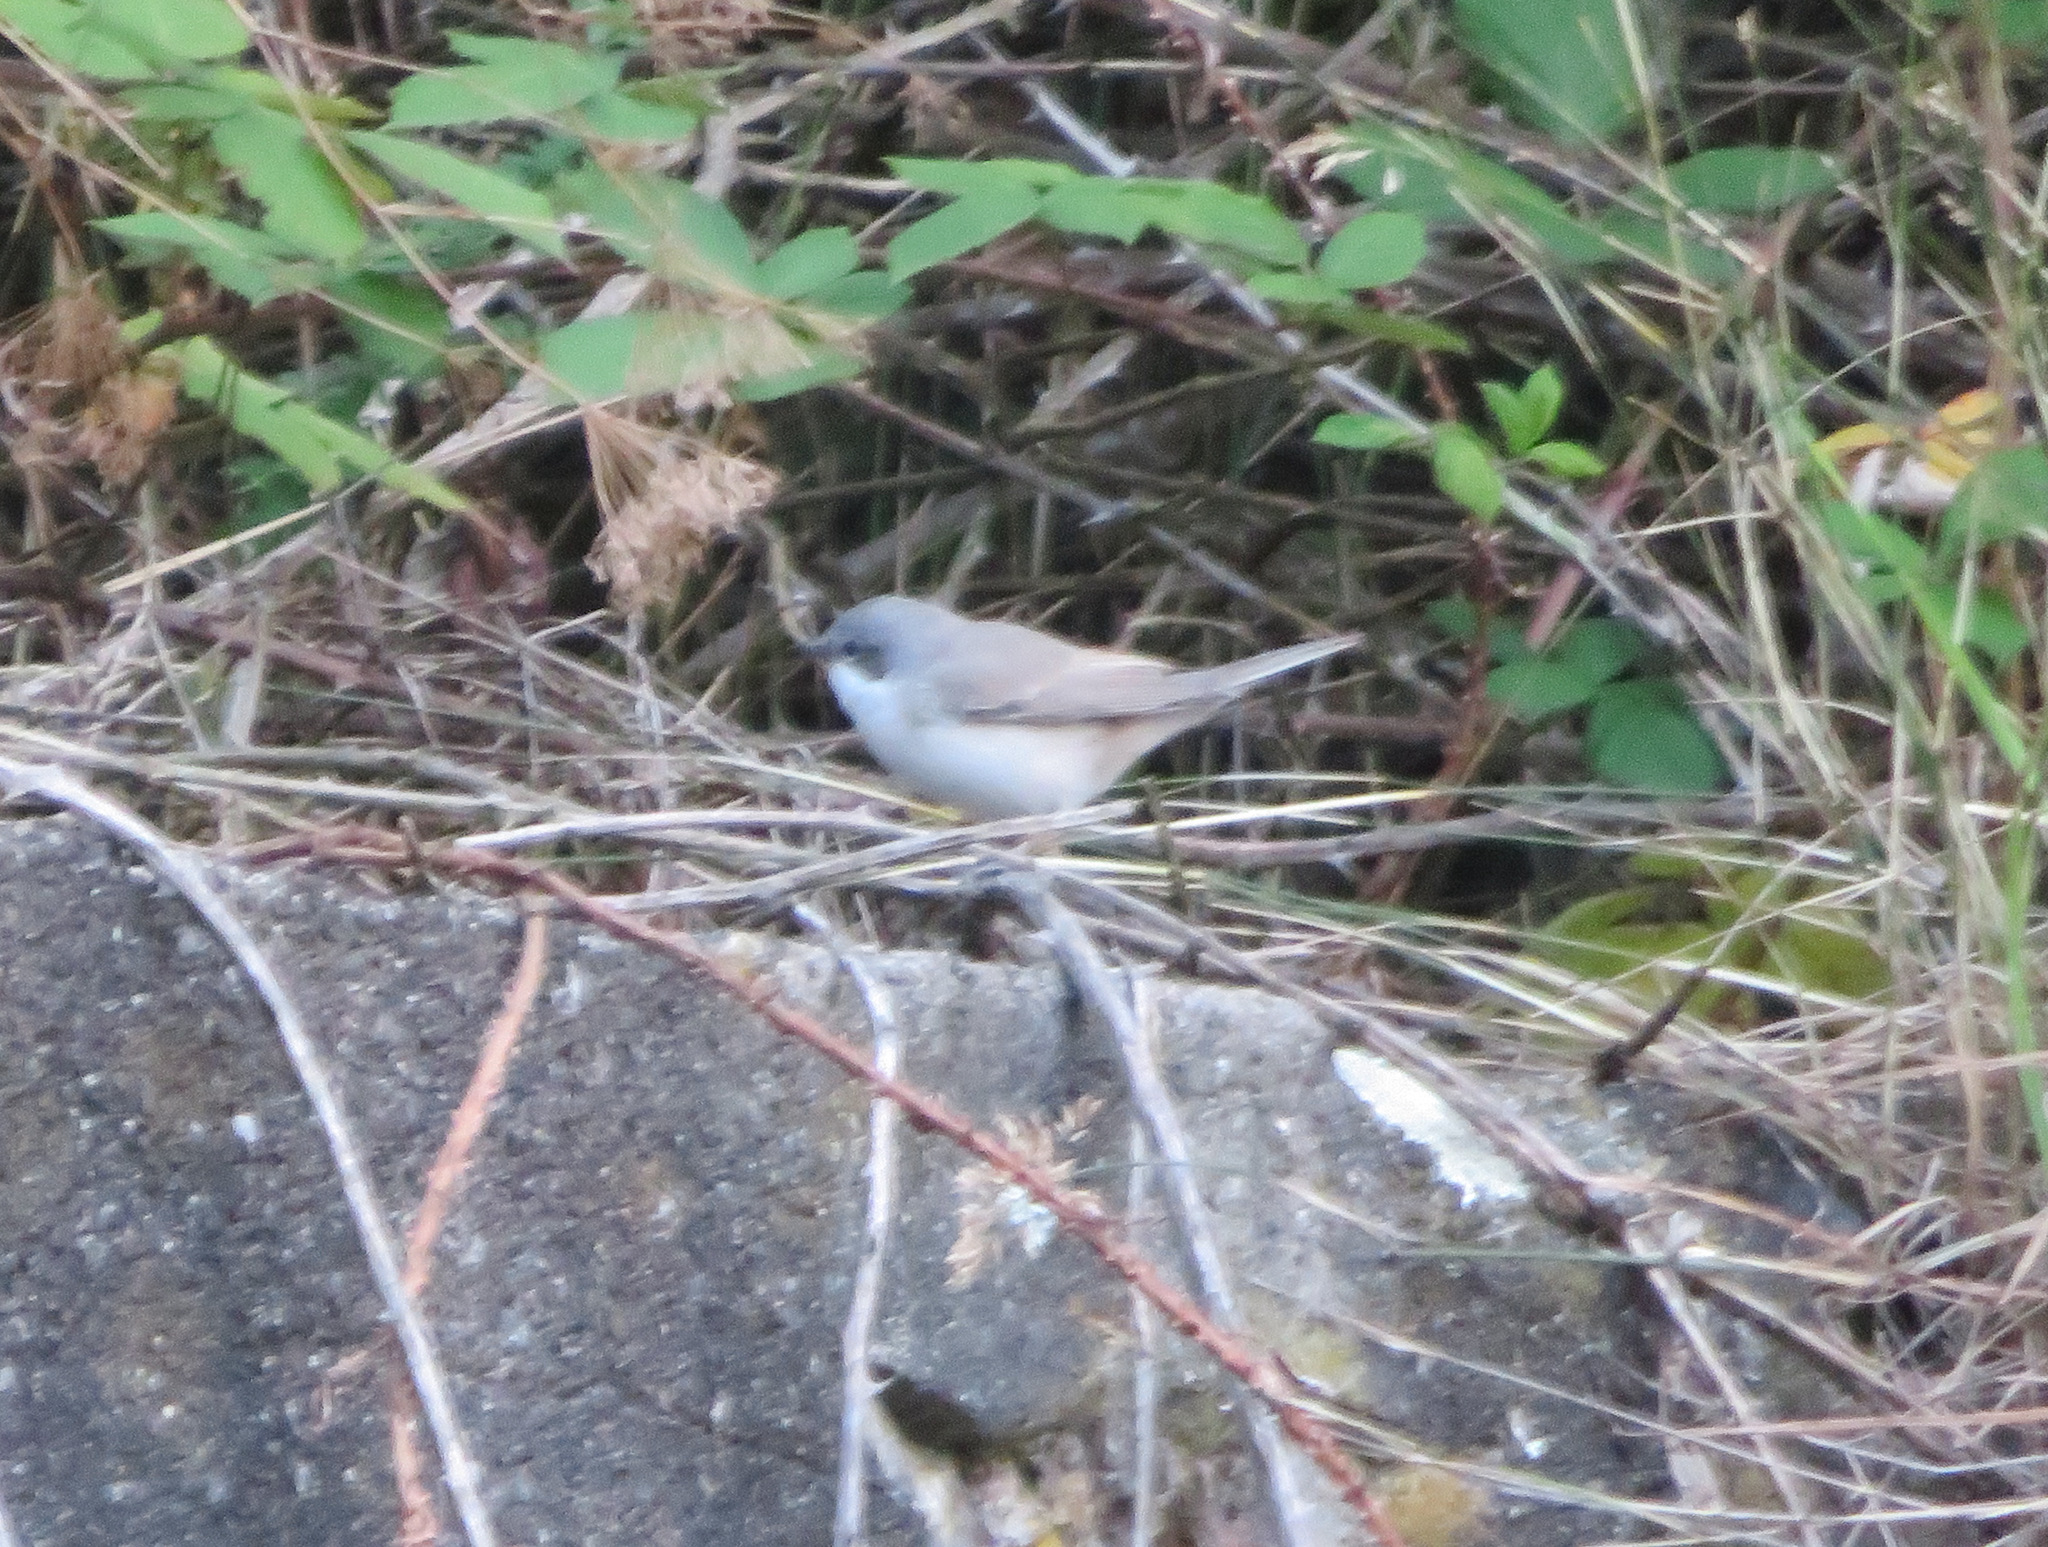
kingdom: Animalia
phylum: Chordata
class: Aves
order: Passeriformes
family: Sylviidae
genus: Sylvia
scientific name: Sylvia curruca
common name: Lesser whitethroat
